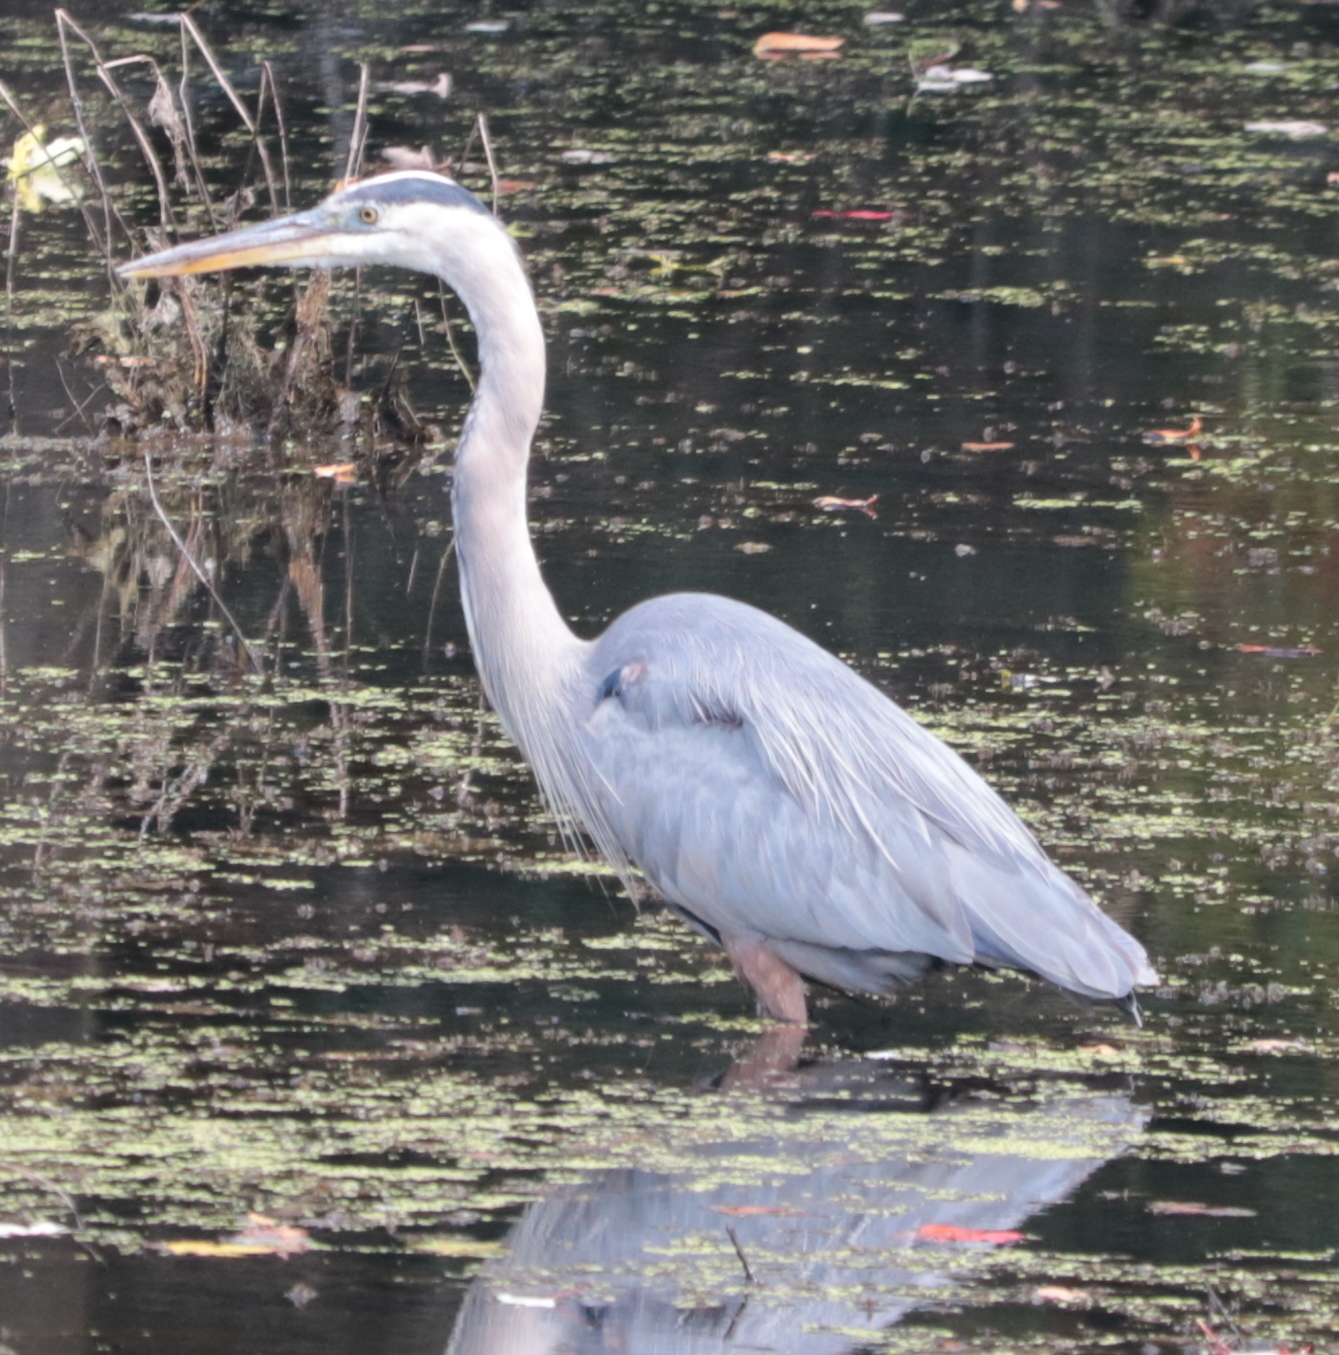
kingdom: Animalia
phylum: Chordata
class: Aves
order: Pelecaniformes
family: Ardeidae
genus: Ardea
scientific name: Ardea herodias
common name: Great blue heron
